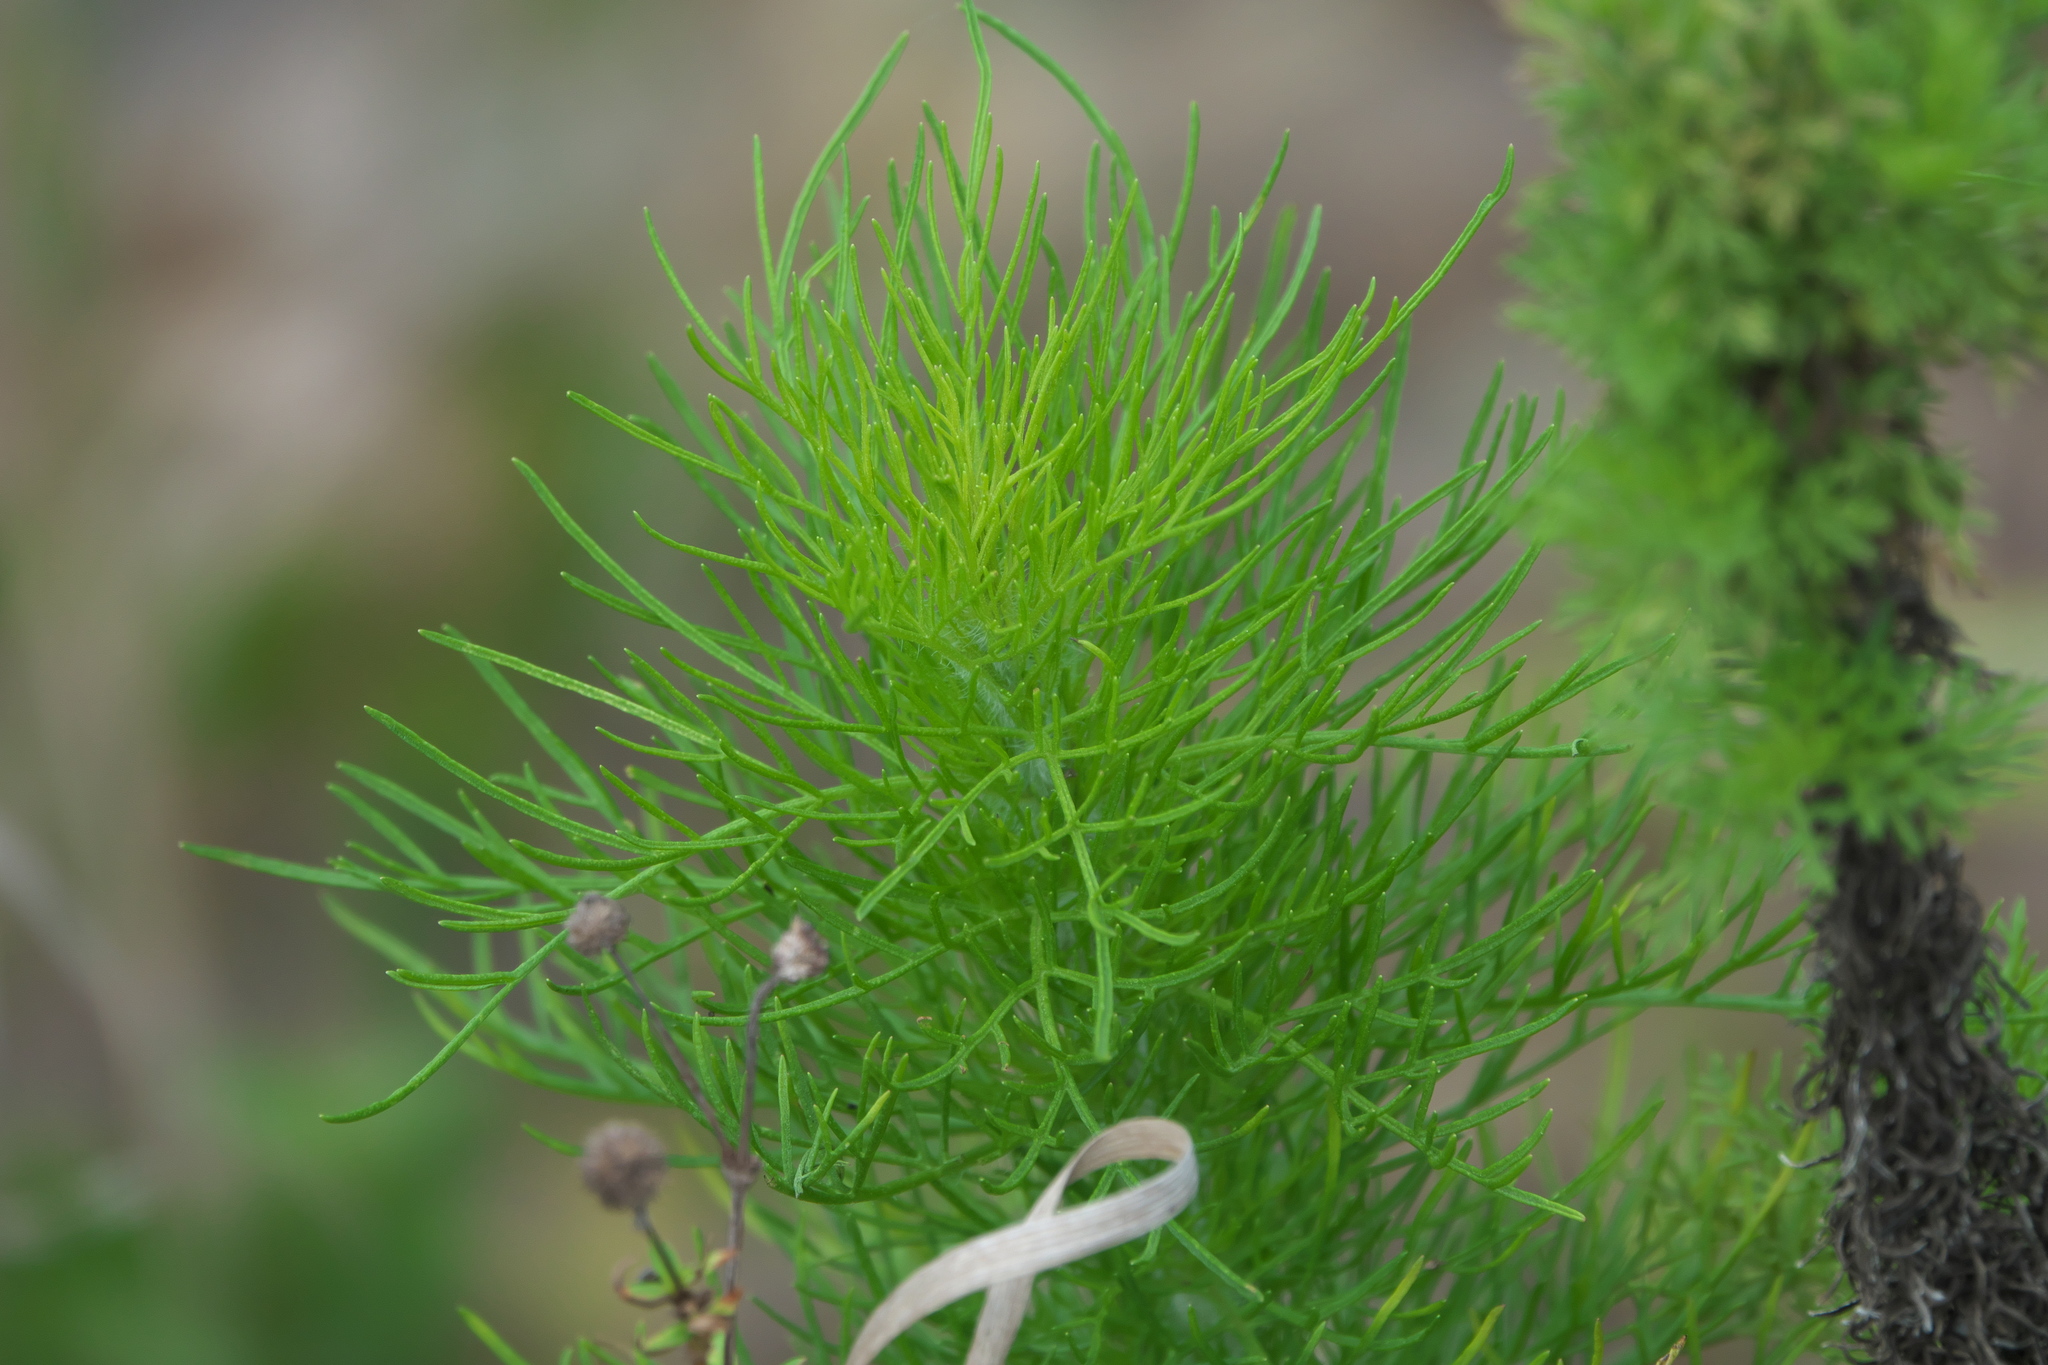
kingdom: Plantae
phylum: Tracheophyta
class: Magnoliopsida
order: Asterales
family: Asteraceae
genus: Eupatorium
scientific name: Eupatorium capillifolium
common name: Dog-fennel
